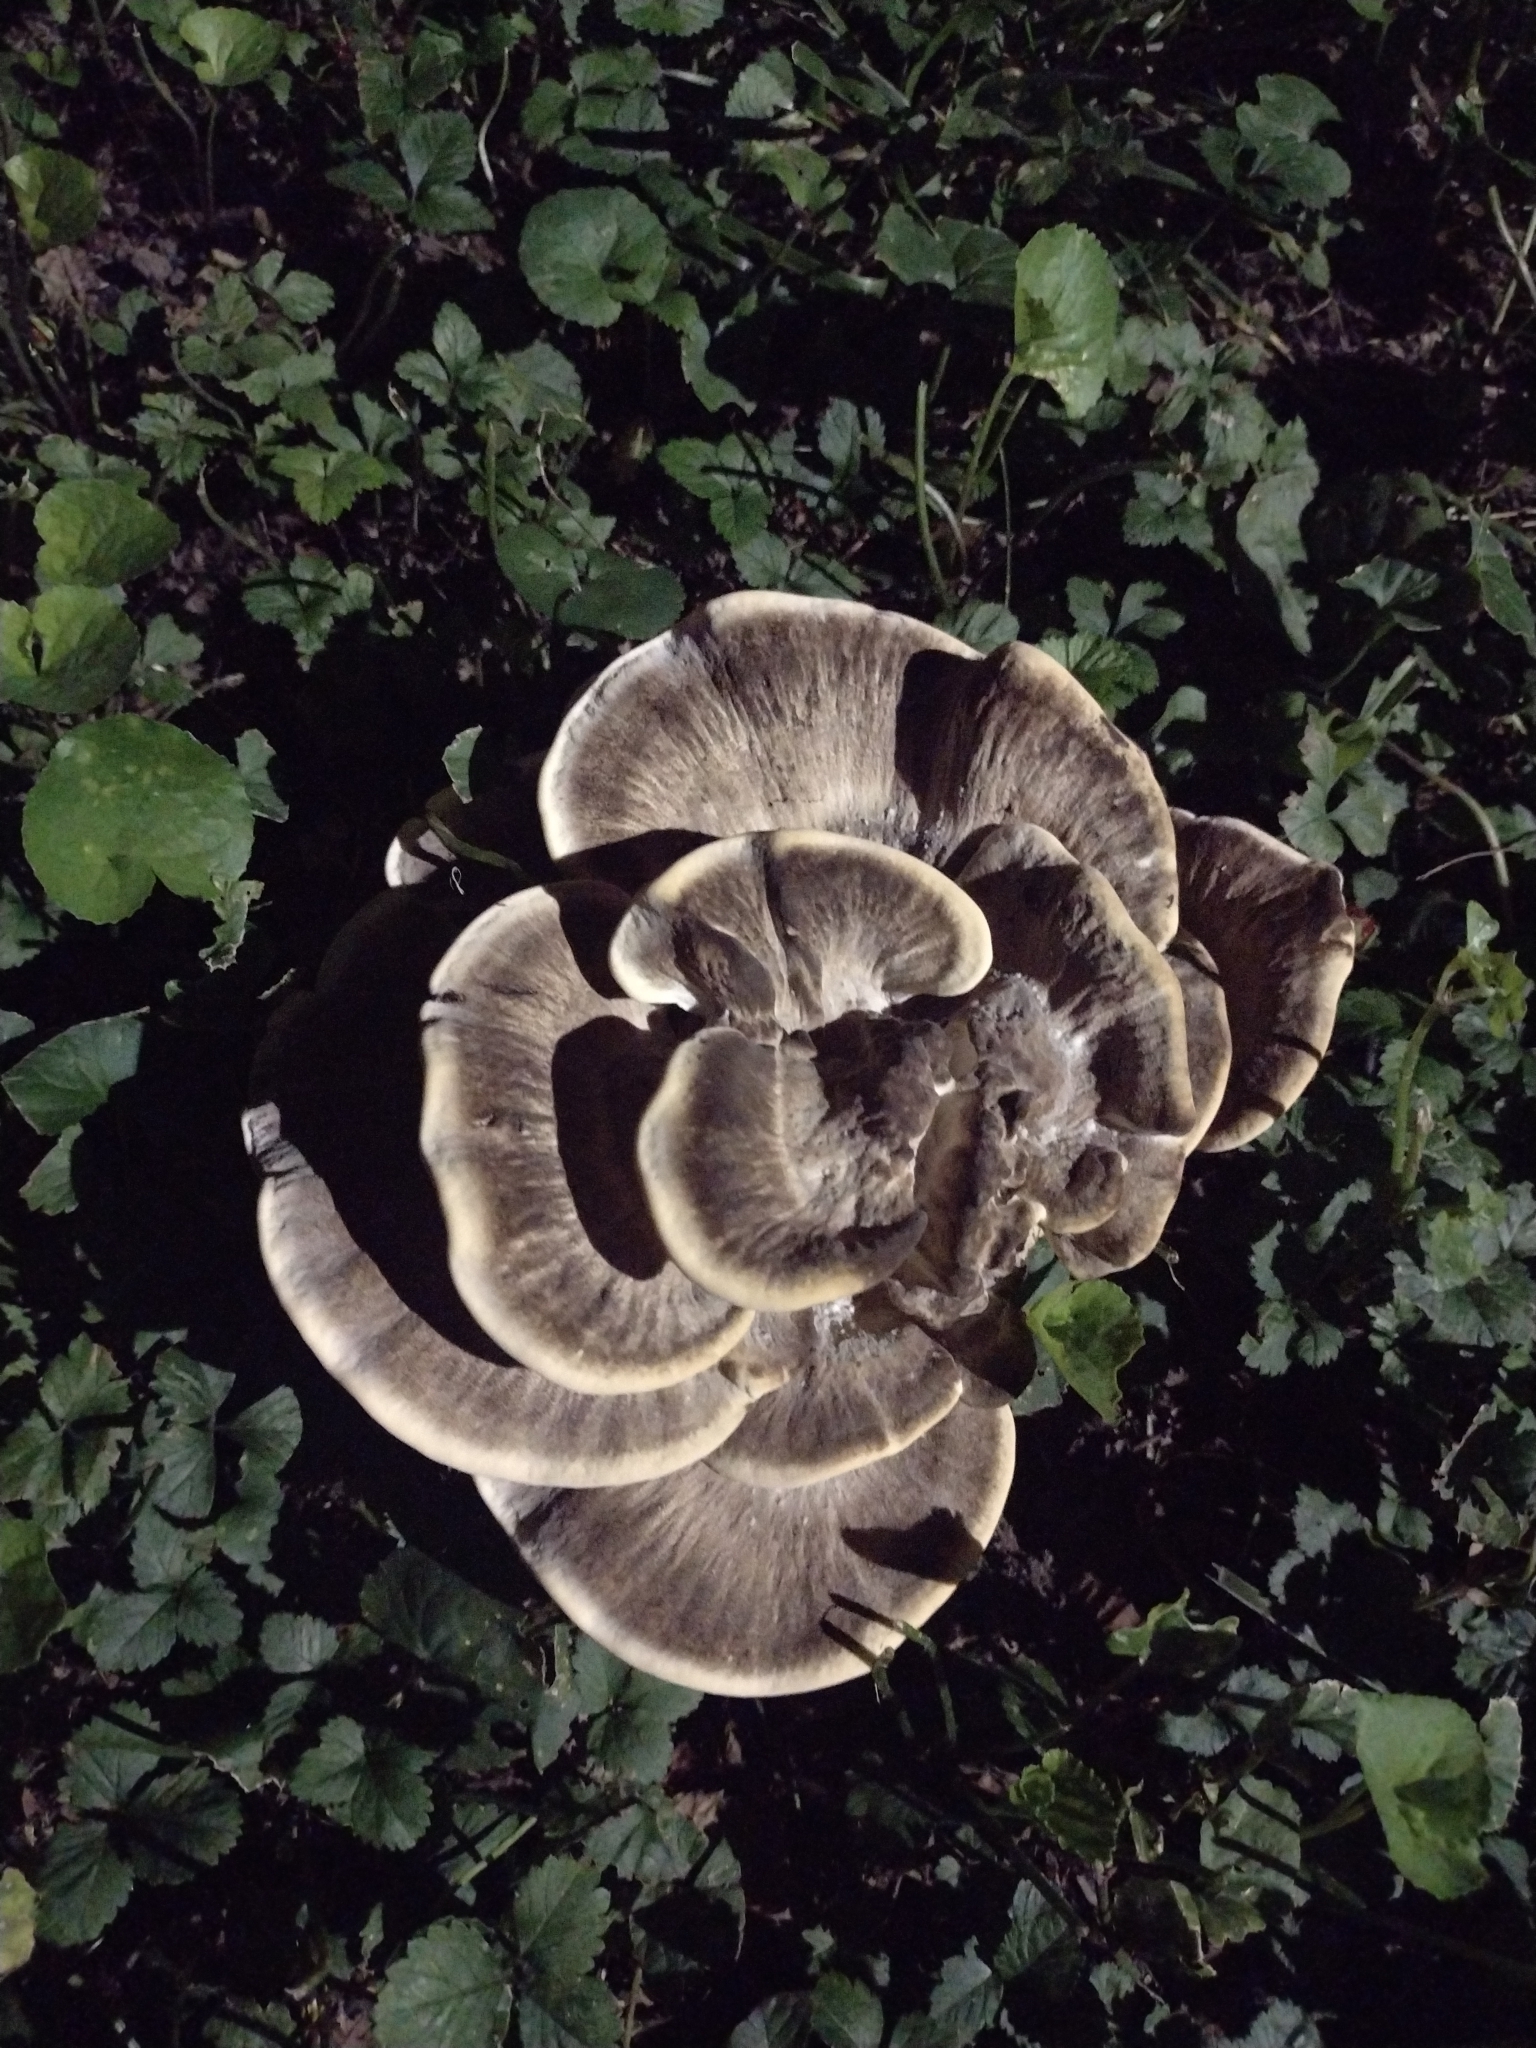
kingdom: Fungi
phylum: Basidiomycota
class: Agaricomycetes
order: Polyporales
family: Meripilaceae
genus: Meripilus
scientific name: Meripilus sumstinei
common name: Black-staining polypore
